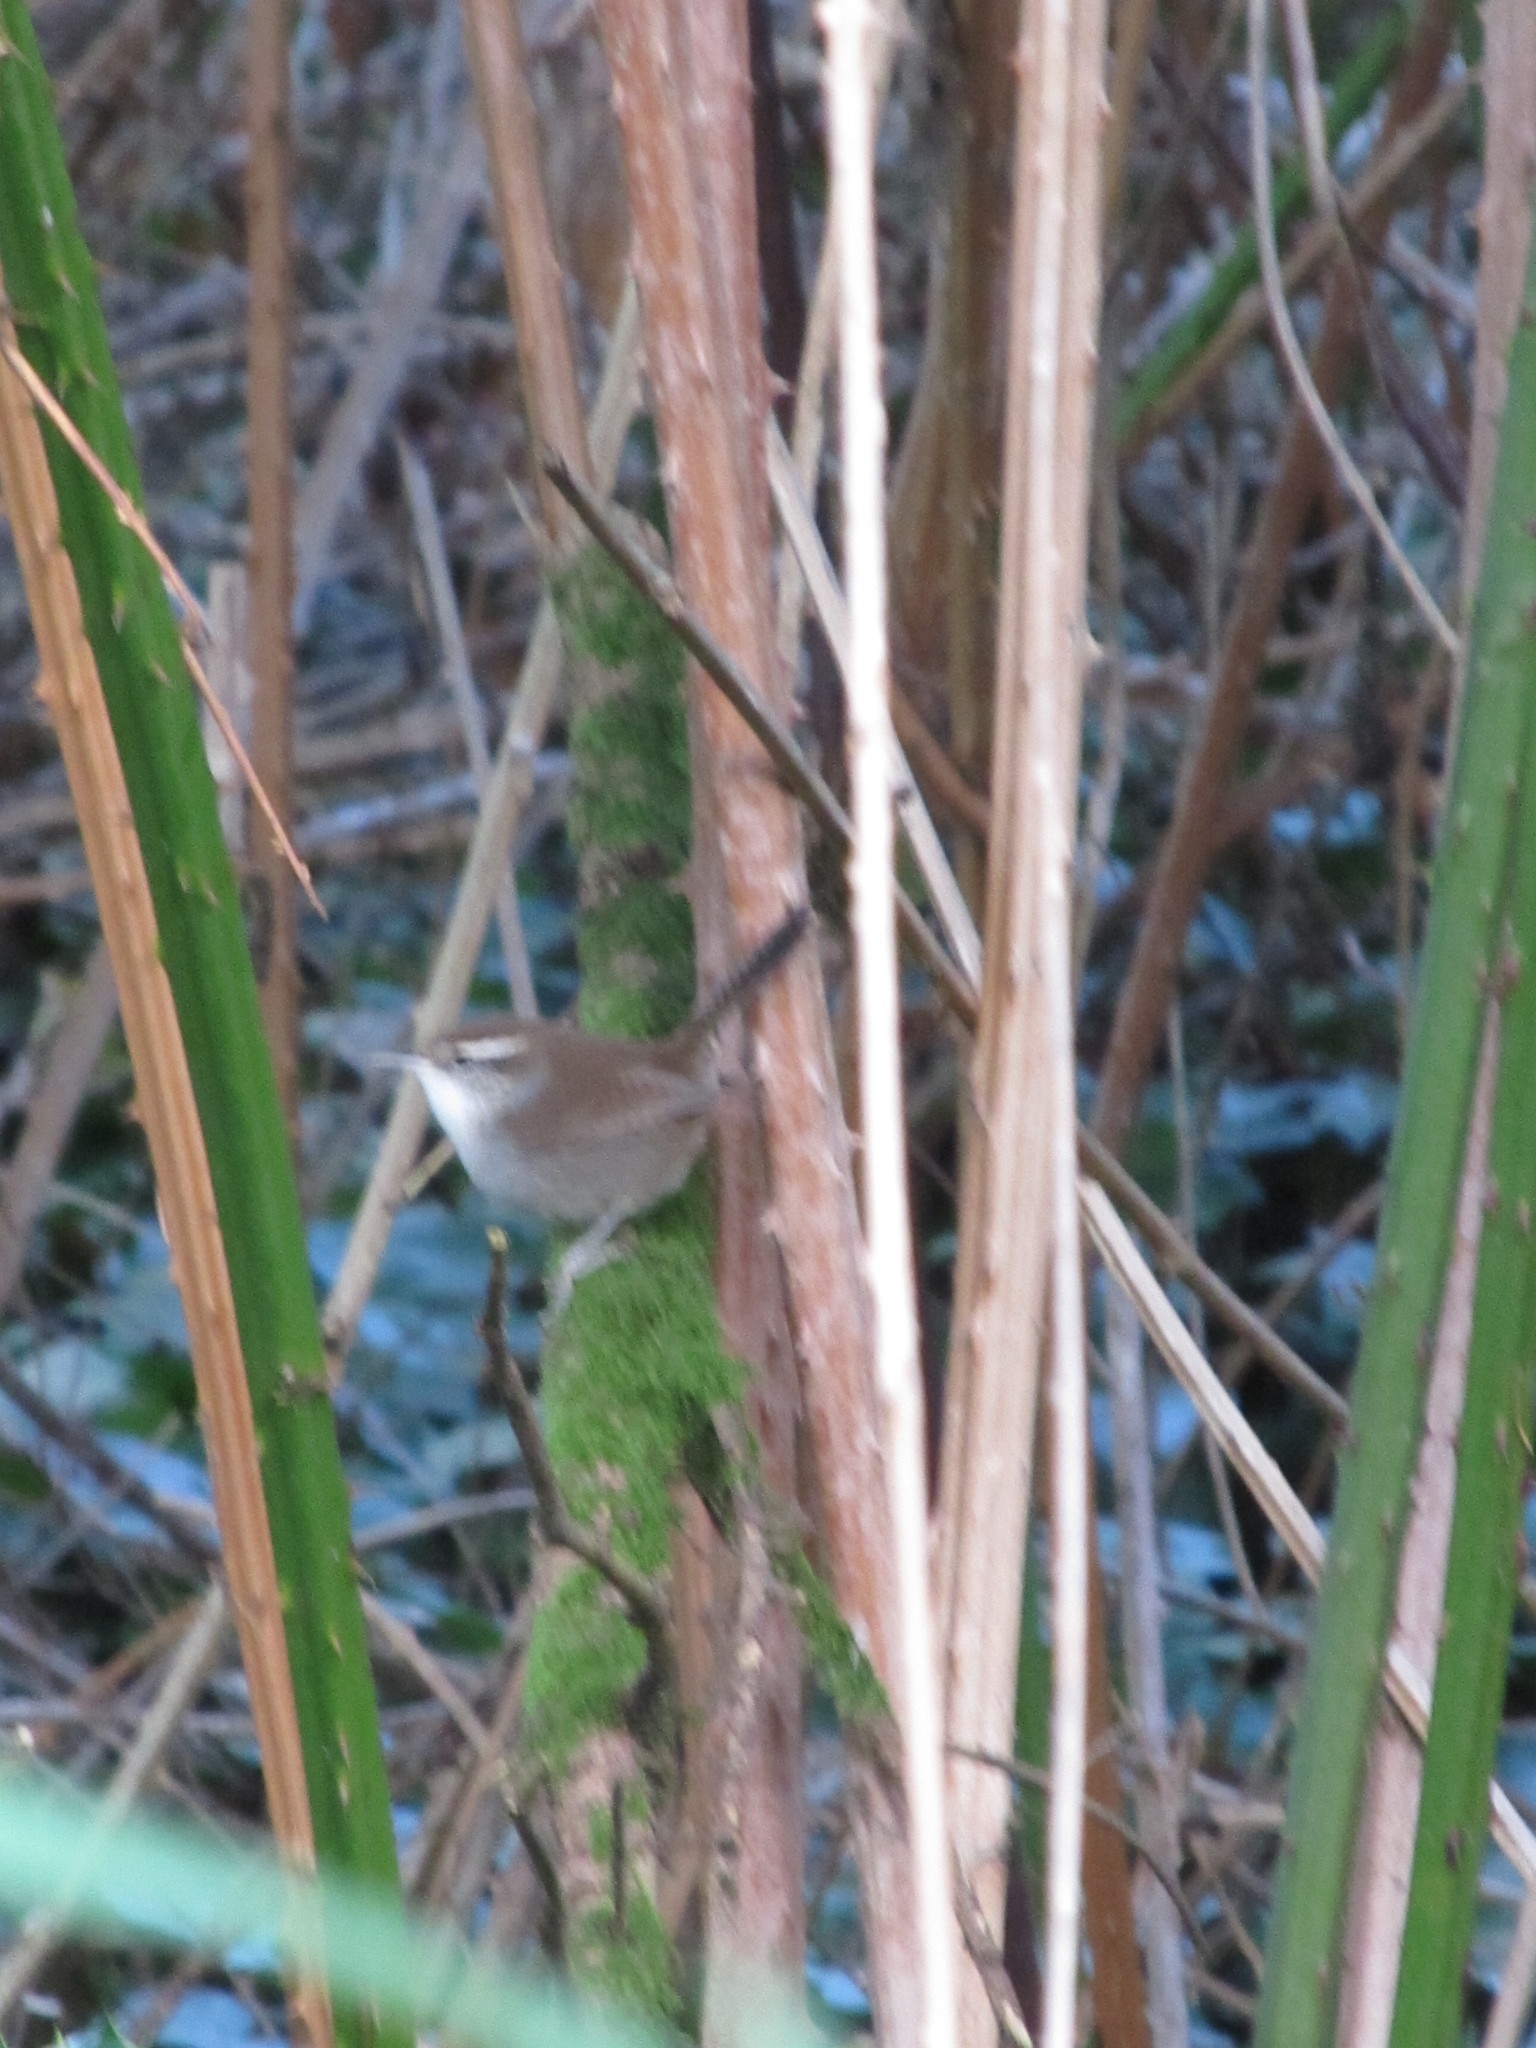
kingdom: Animalia
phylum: Chordata
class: Aves
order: Passeriformes
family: Troglodytidae
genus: Thryomanes
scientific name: Thryomanes bewickii
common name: Bewick's wren
